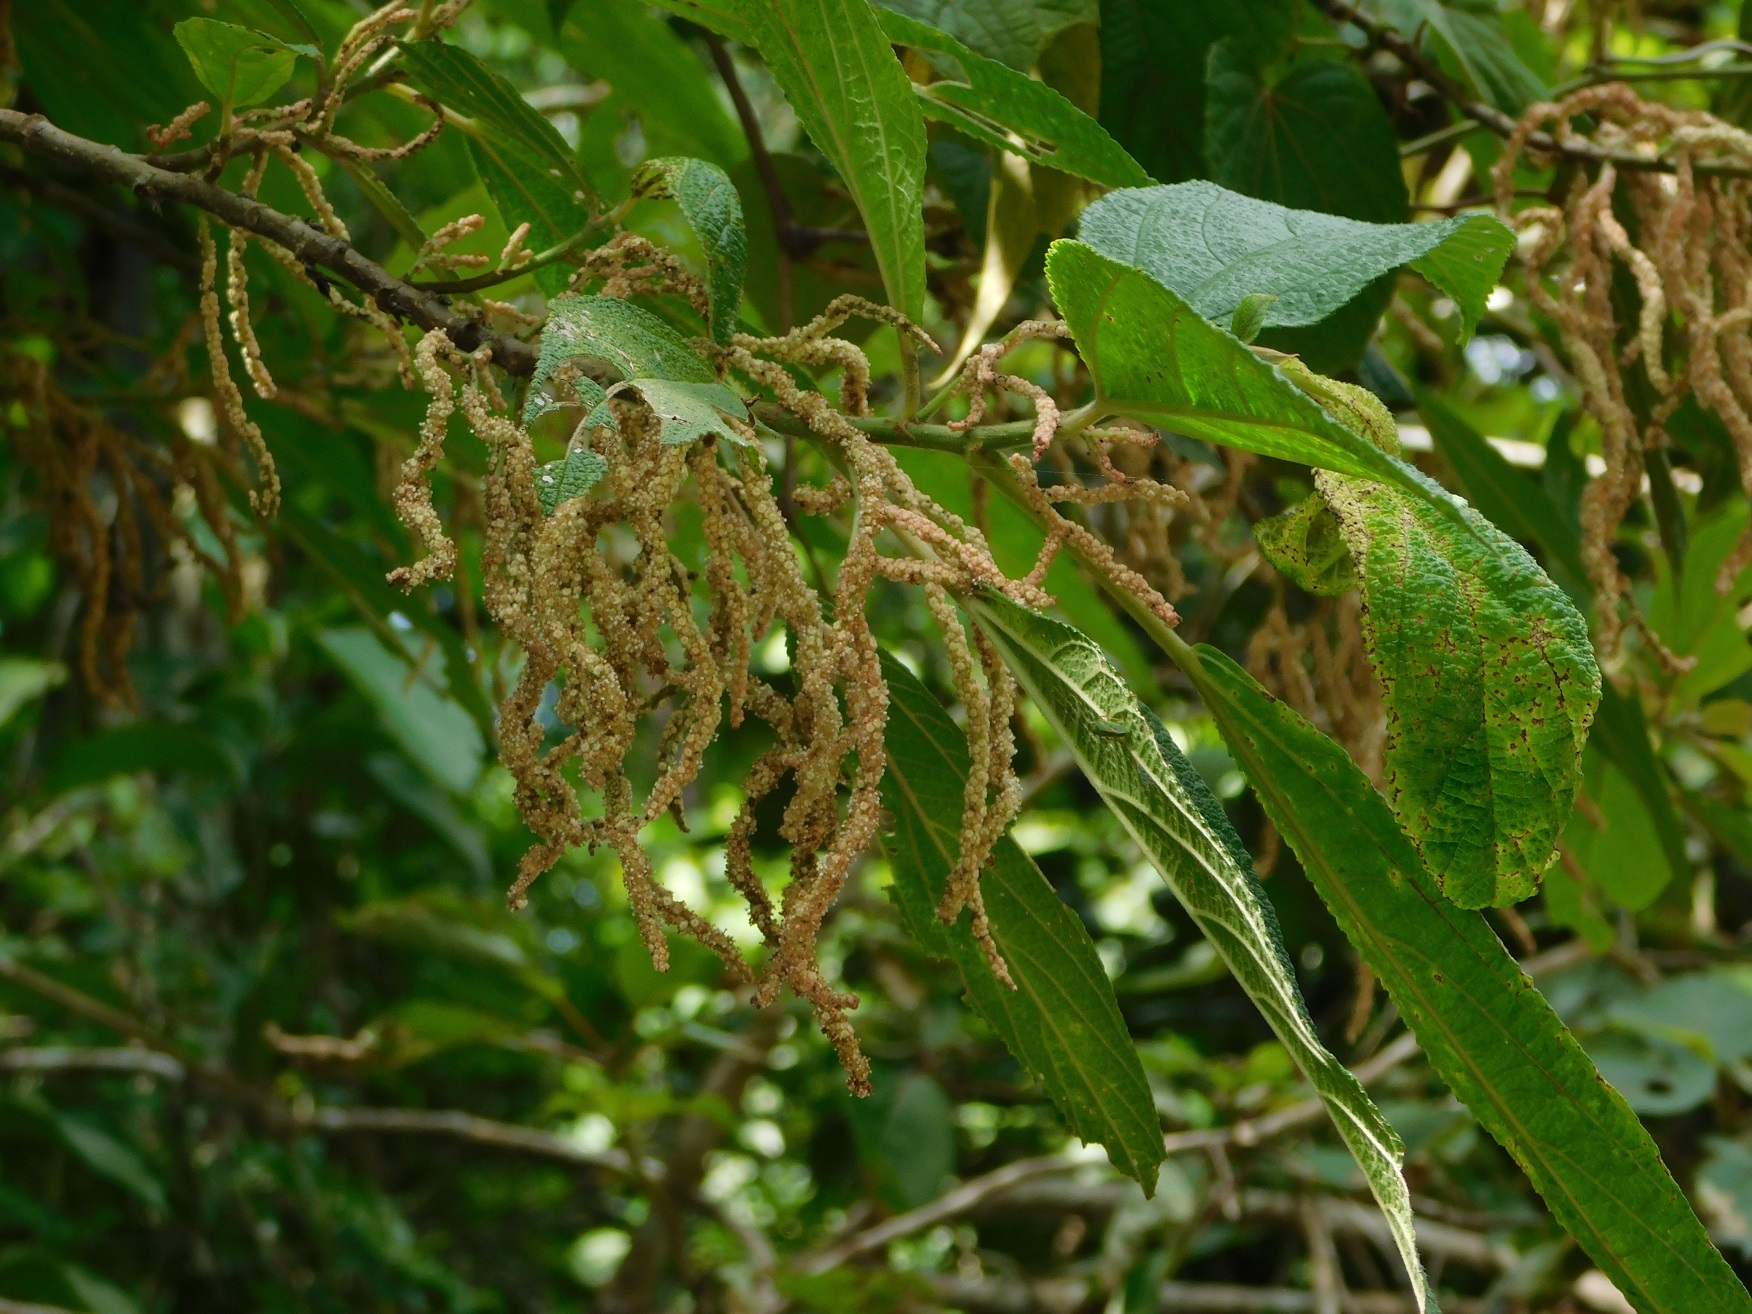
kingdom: Plantae
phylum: Tracheophyta
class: Magnoliopsida
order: Rosales
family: Urticaceae
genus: Myriocarpa
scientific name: Myriocarpa heterospicata
